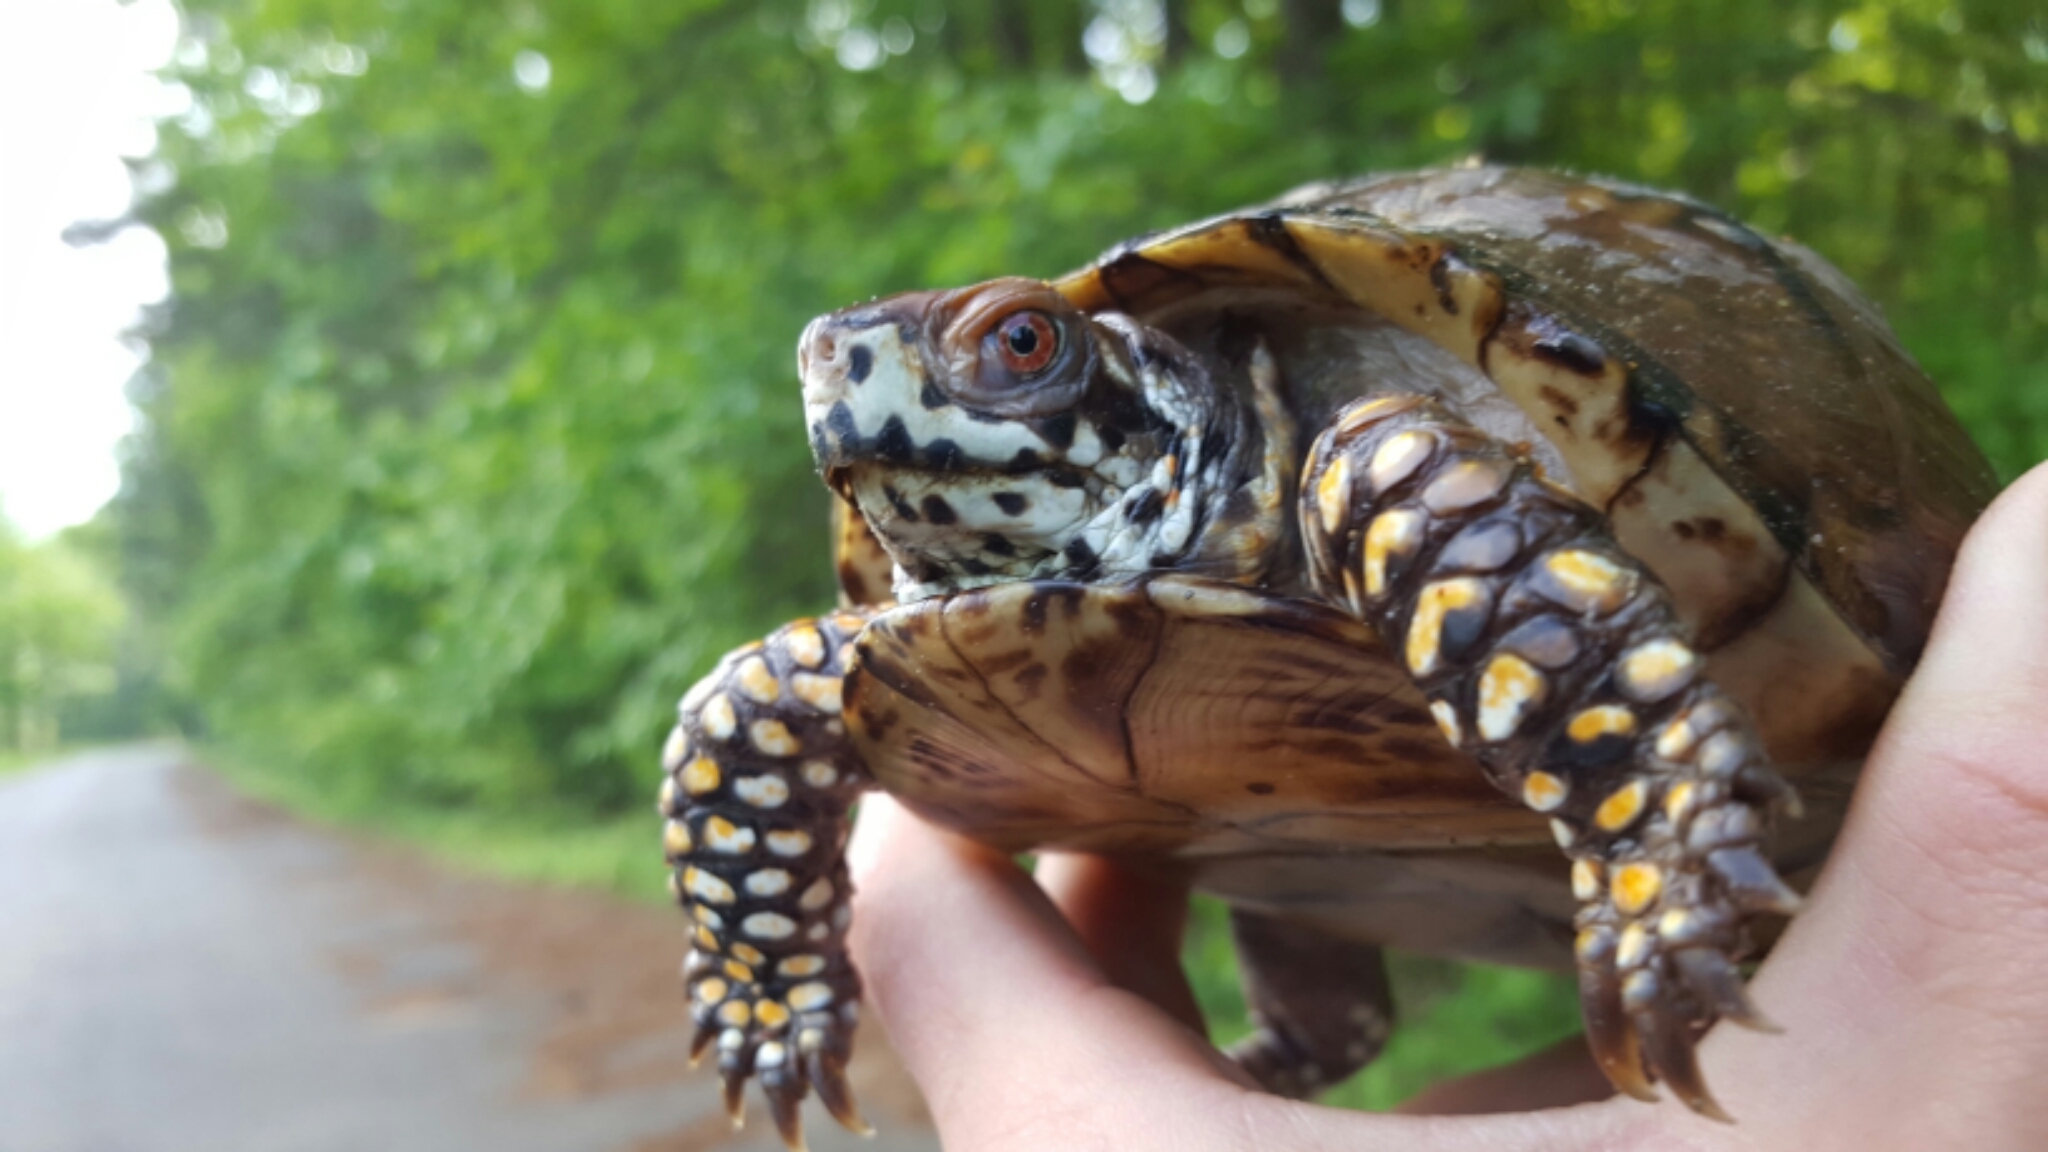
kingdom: Animalia
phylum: Chordata
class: Testudines
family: Emydidae
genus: Terrapene
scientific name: Terrapene carolina
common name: Common box turtle
